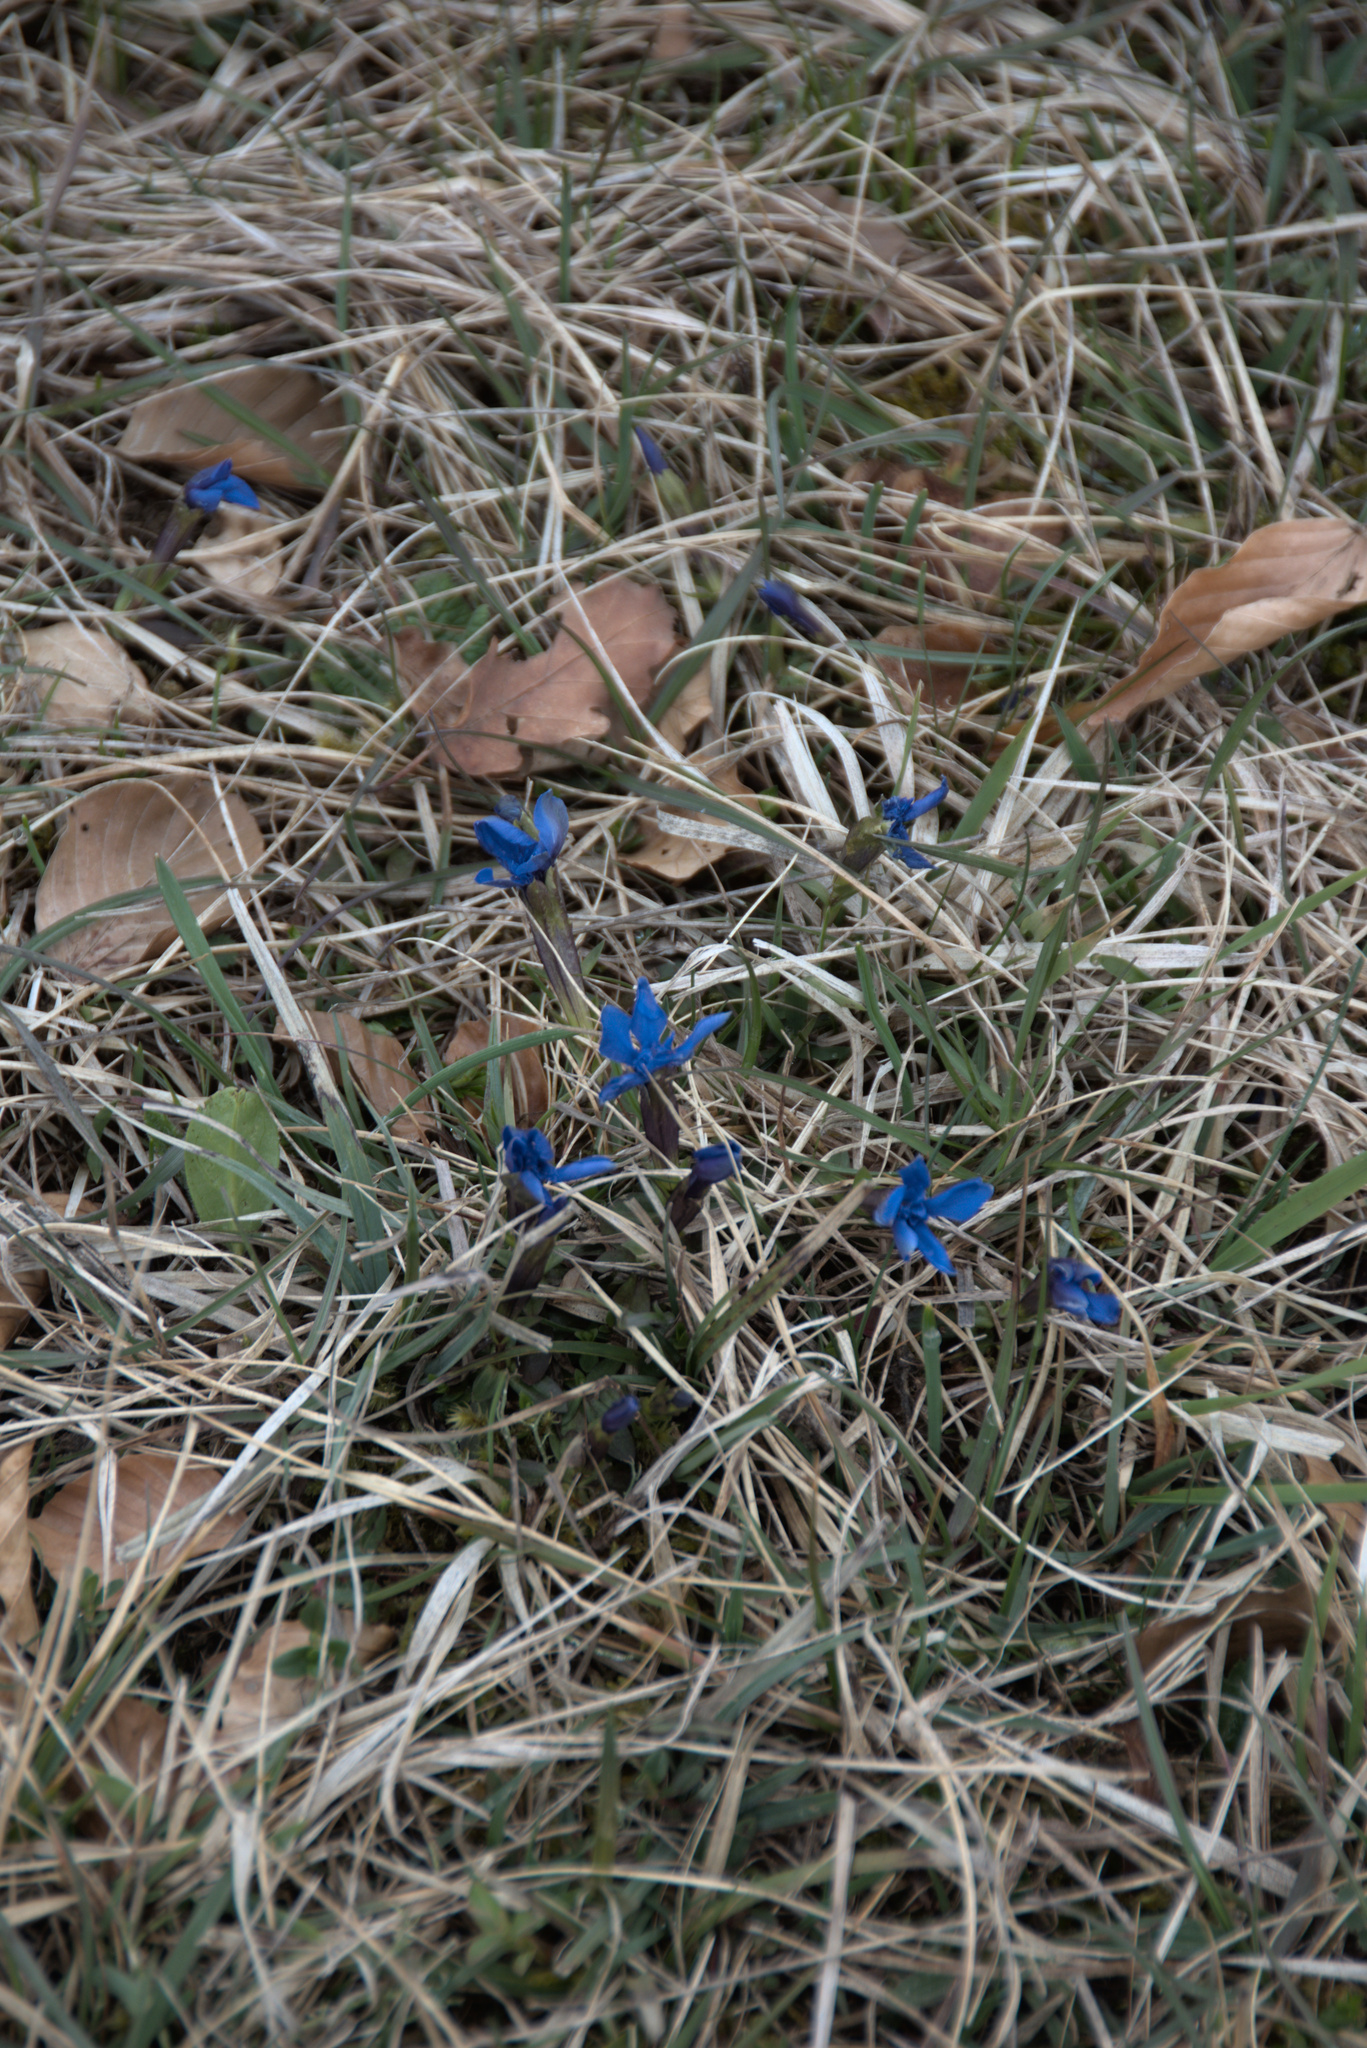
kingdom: Plantae
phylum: Tracheophyta
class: Magnoliopsida
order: Gentianales
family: Gentianaceae
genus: Gentiana
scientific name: Gentiana verna
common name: Spring gentian
